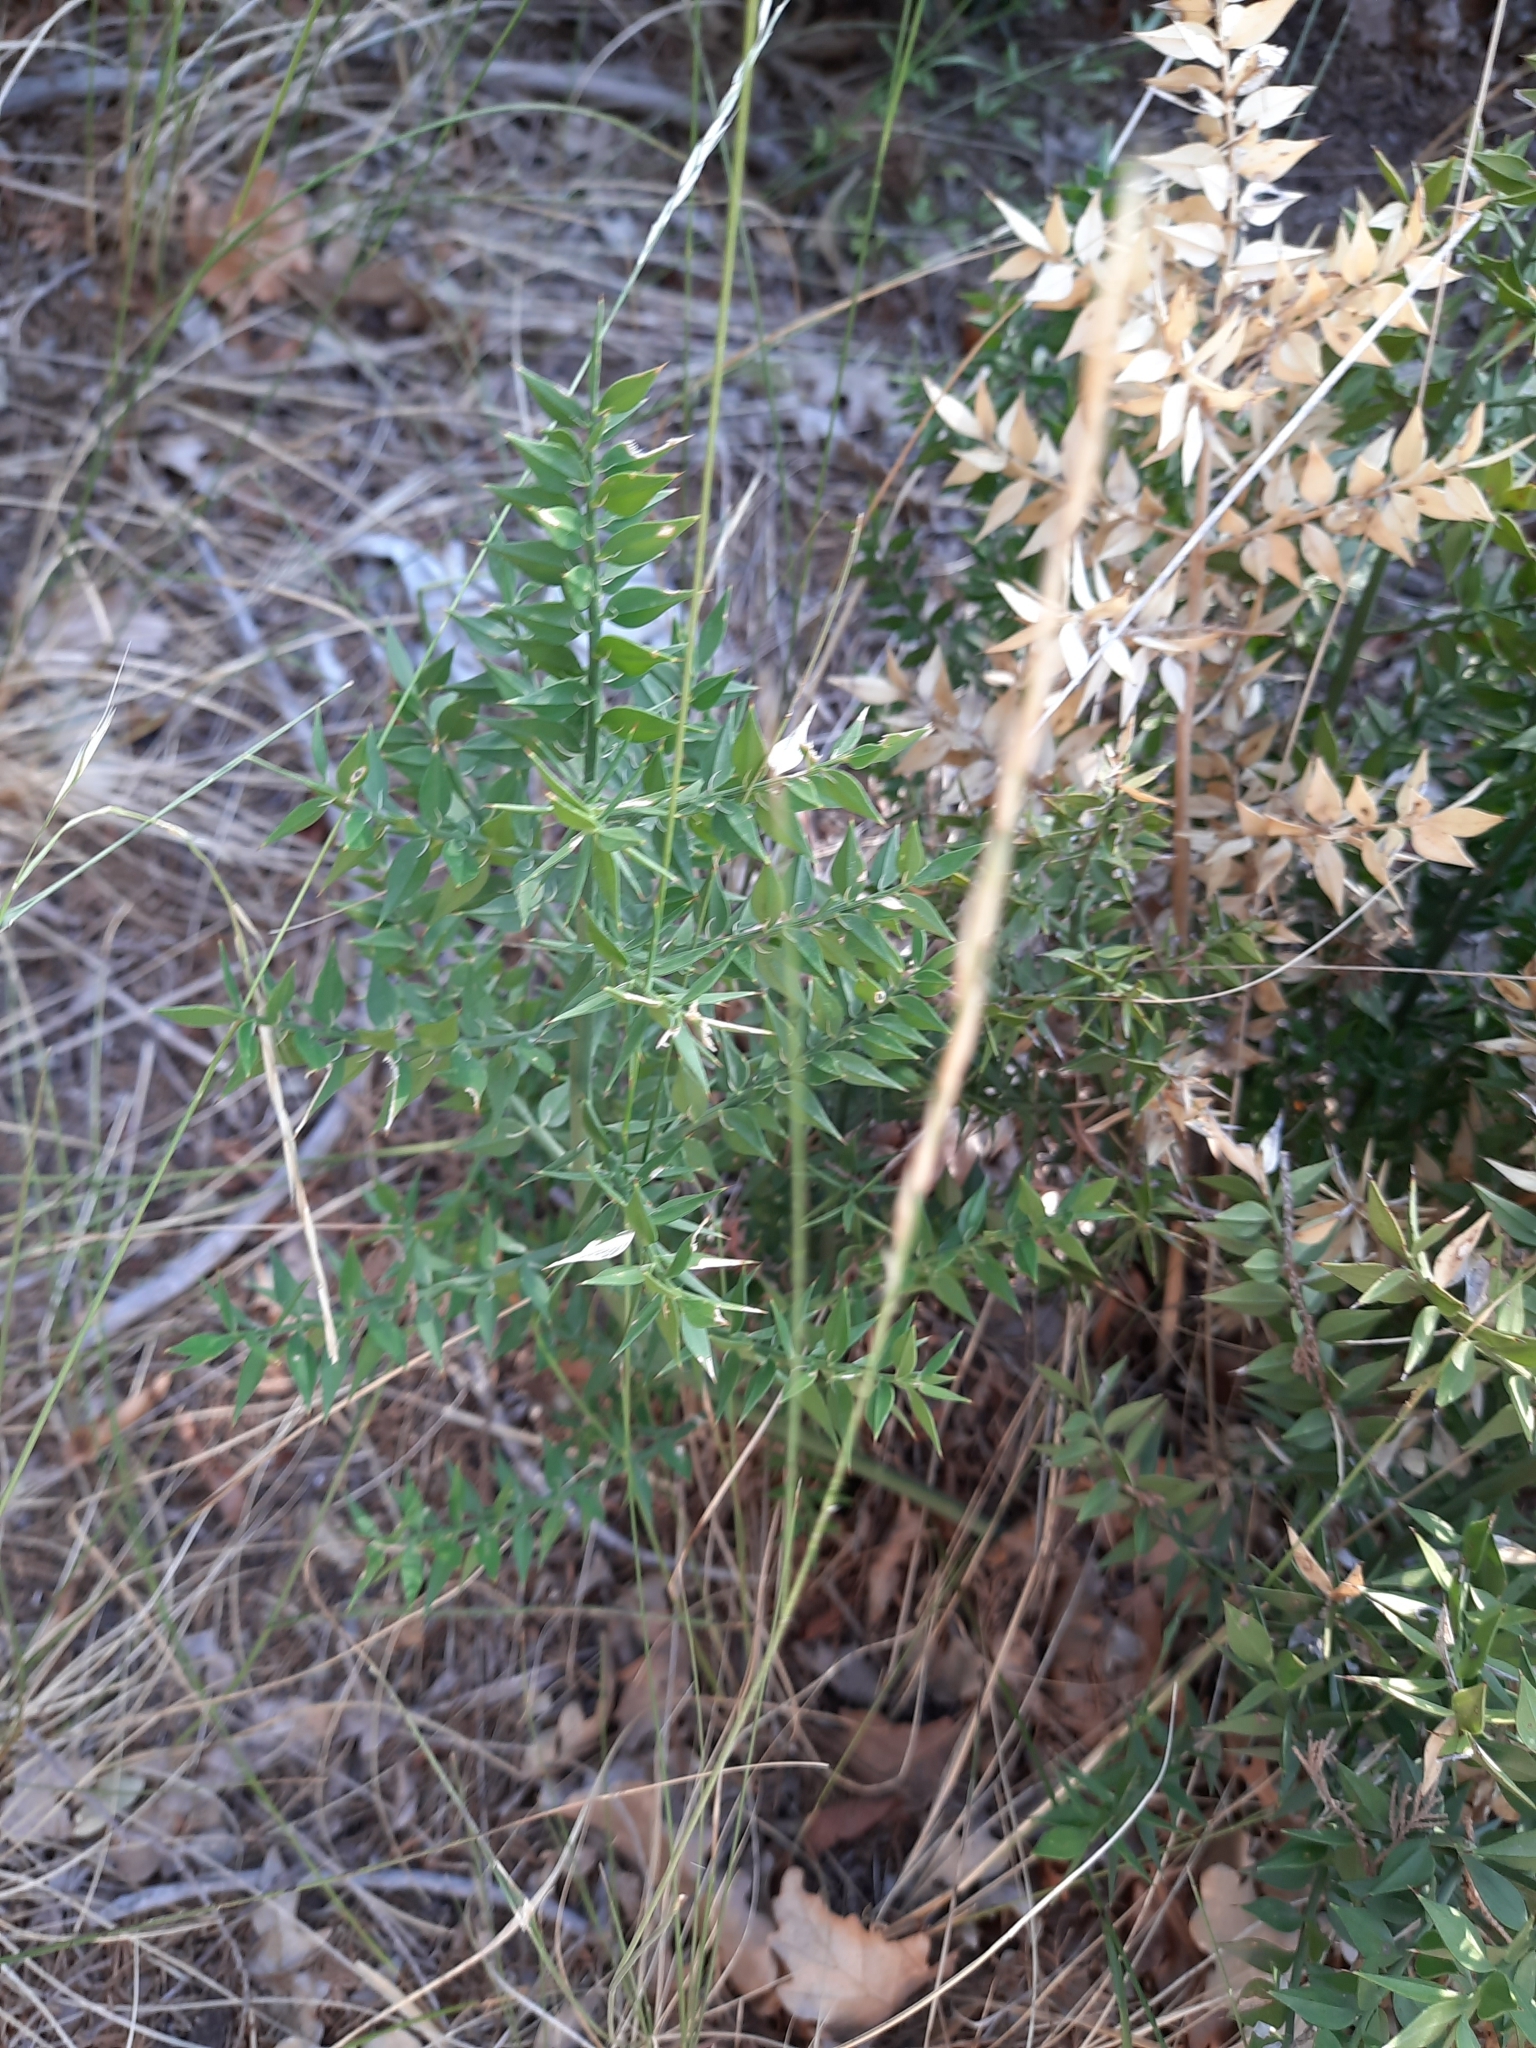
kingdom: Plantae
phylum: Tracheophyta
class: Liliopsida
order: Asparagales
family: Asparagaceae
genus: Ruscus
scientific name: Ruscus aculeatus
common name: Butcher's-broom
